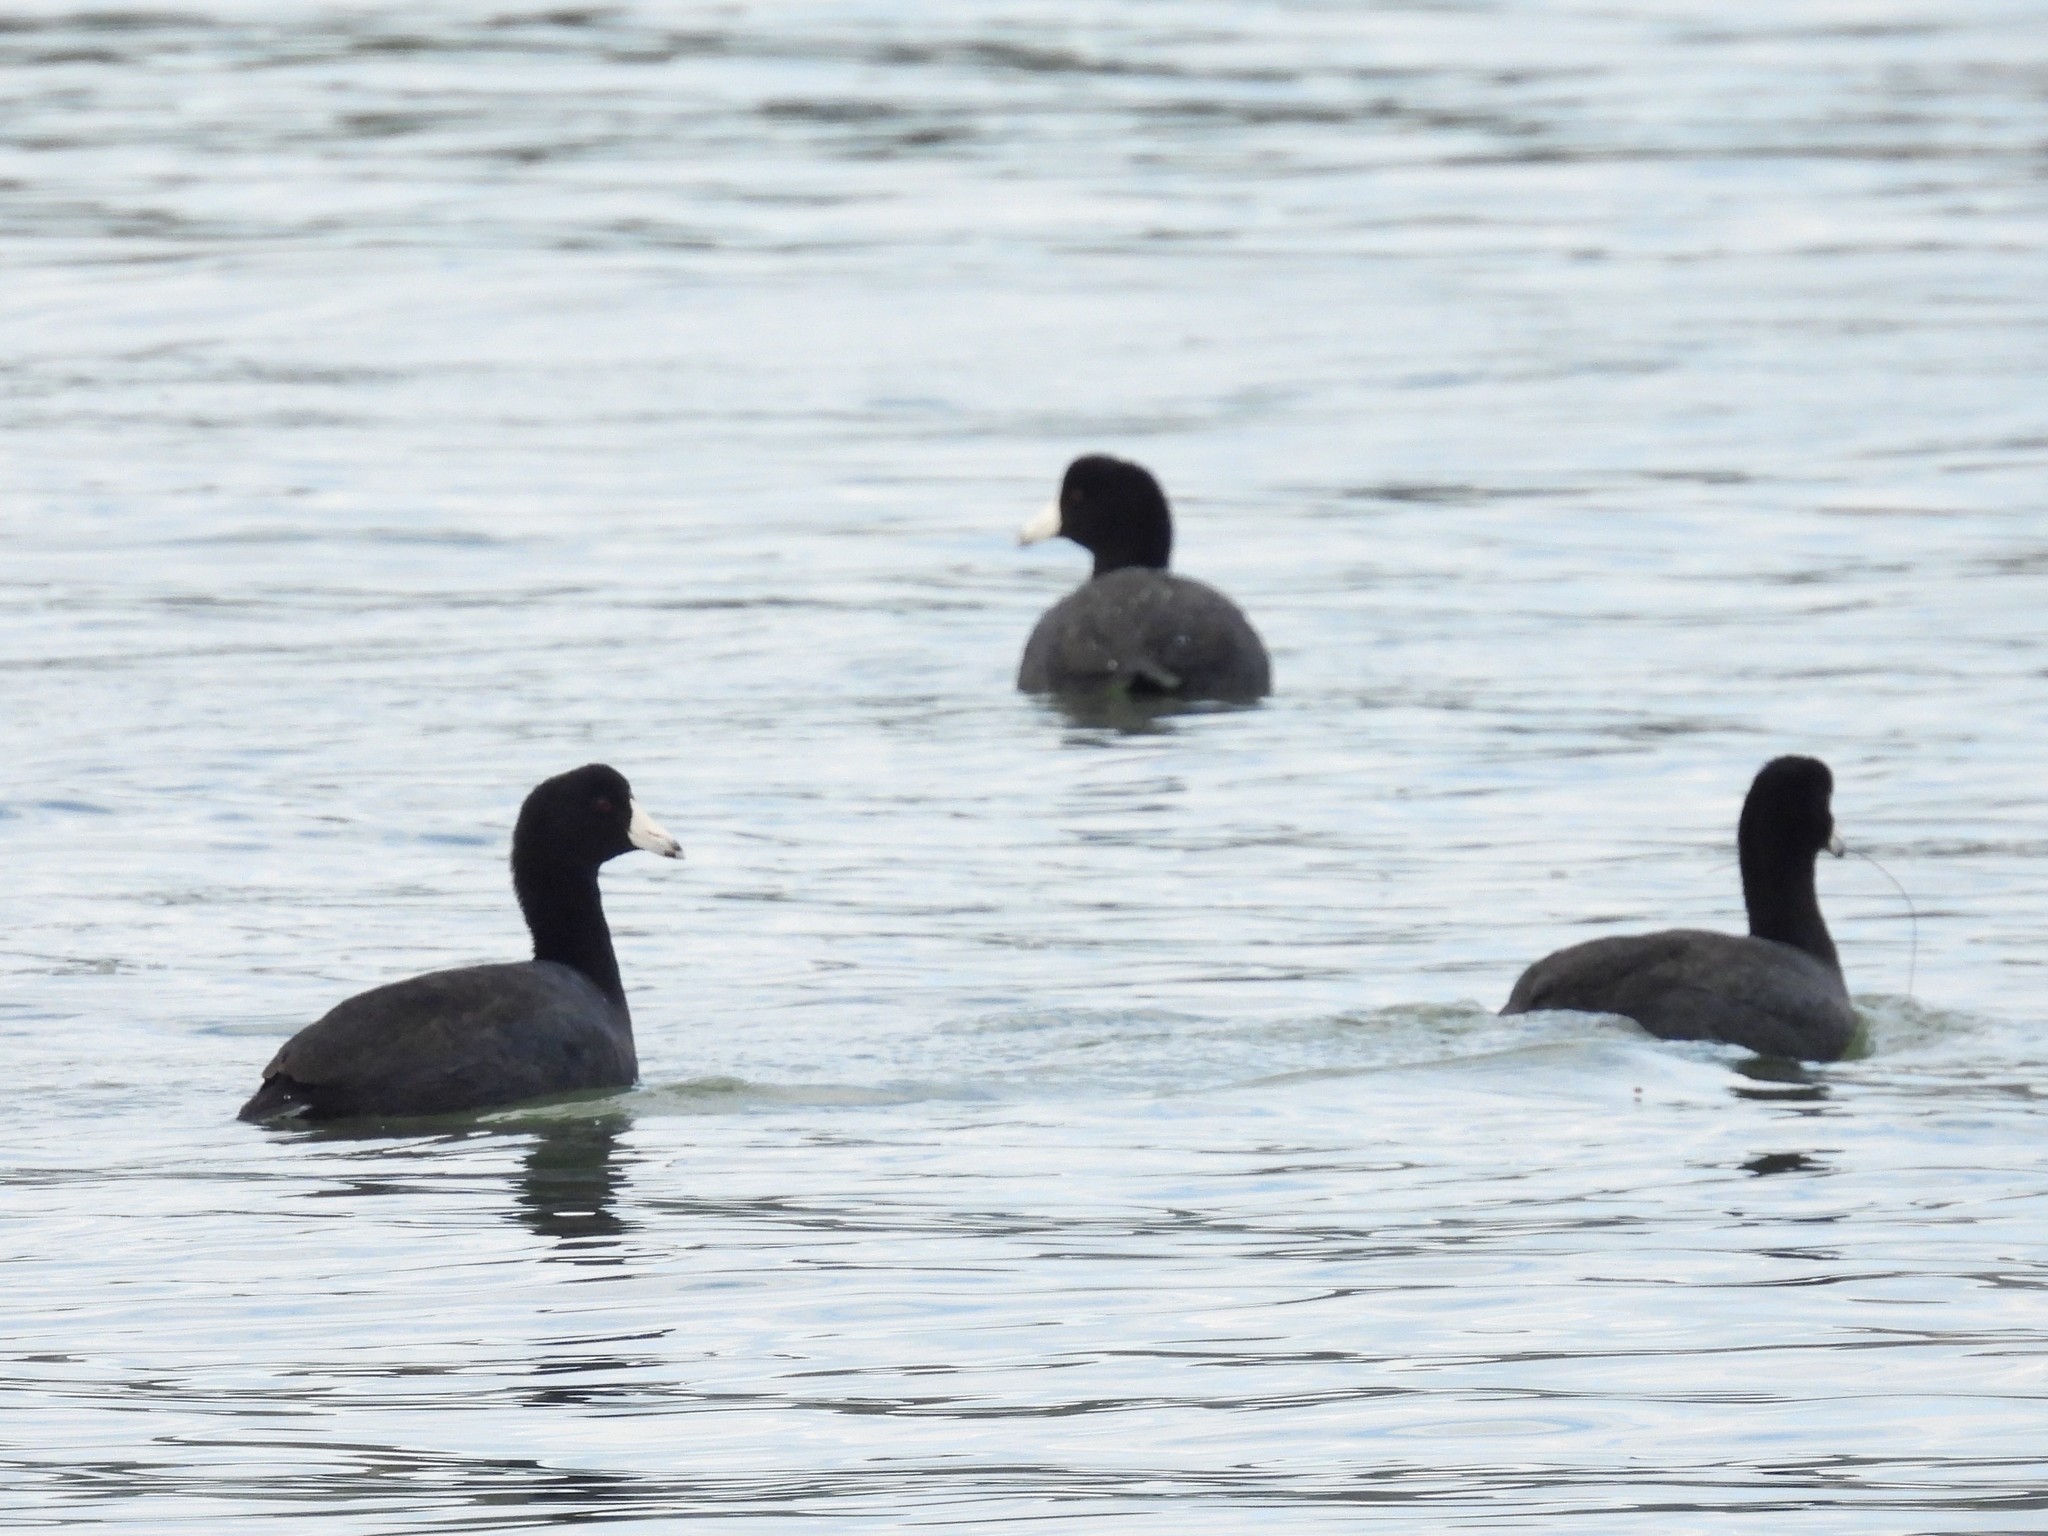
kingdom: Animalia
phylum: Chordata
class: Aves
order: Gruiformes
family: Rallidae
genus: Fulica
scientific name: Fulica americana
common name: American coot
